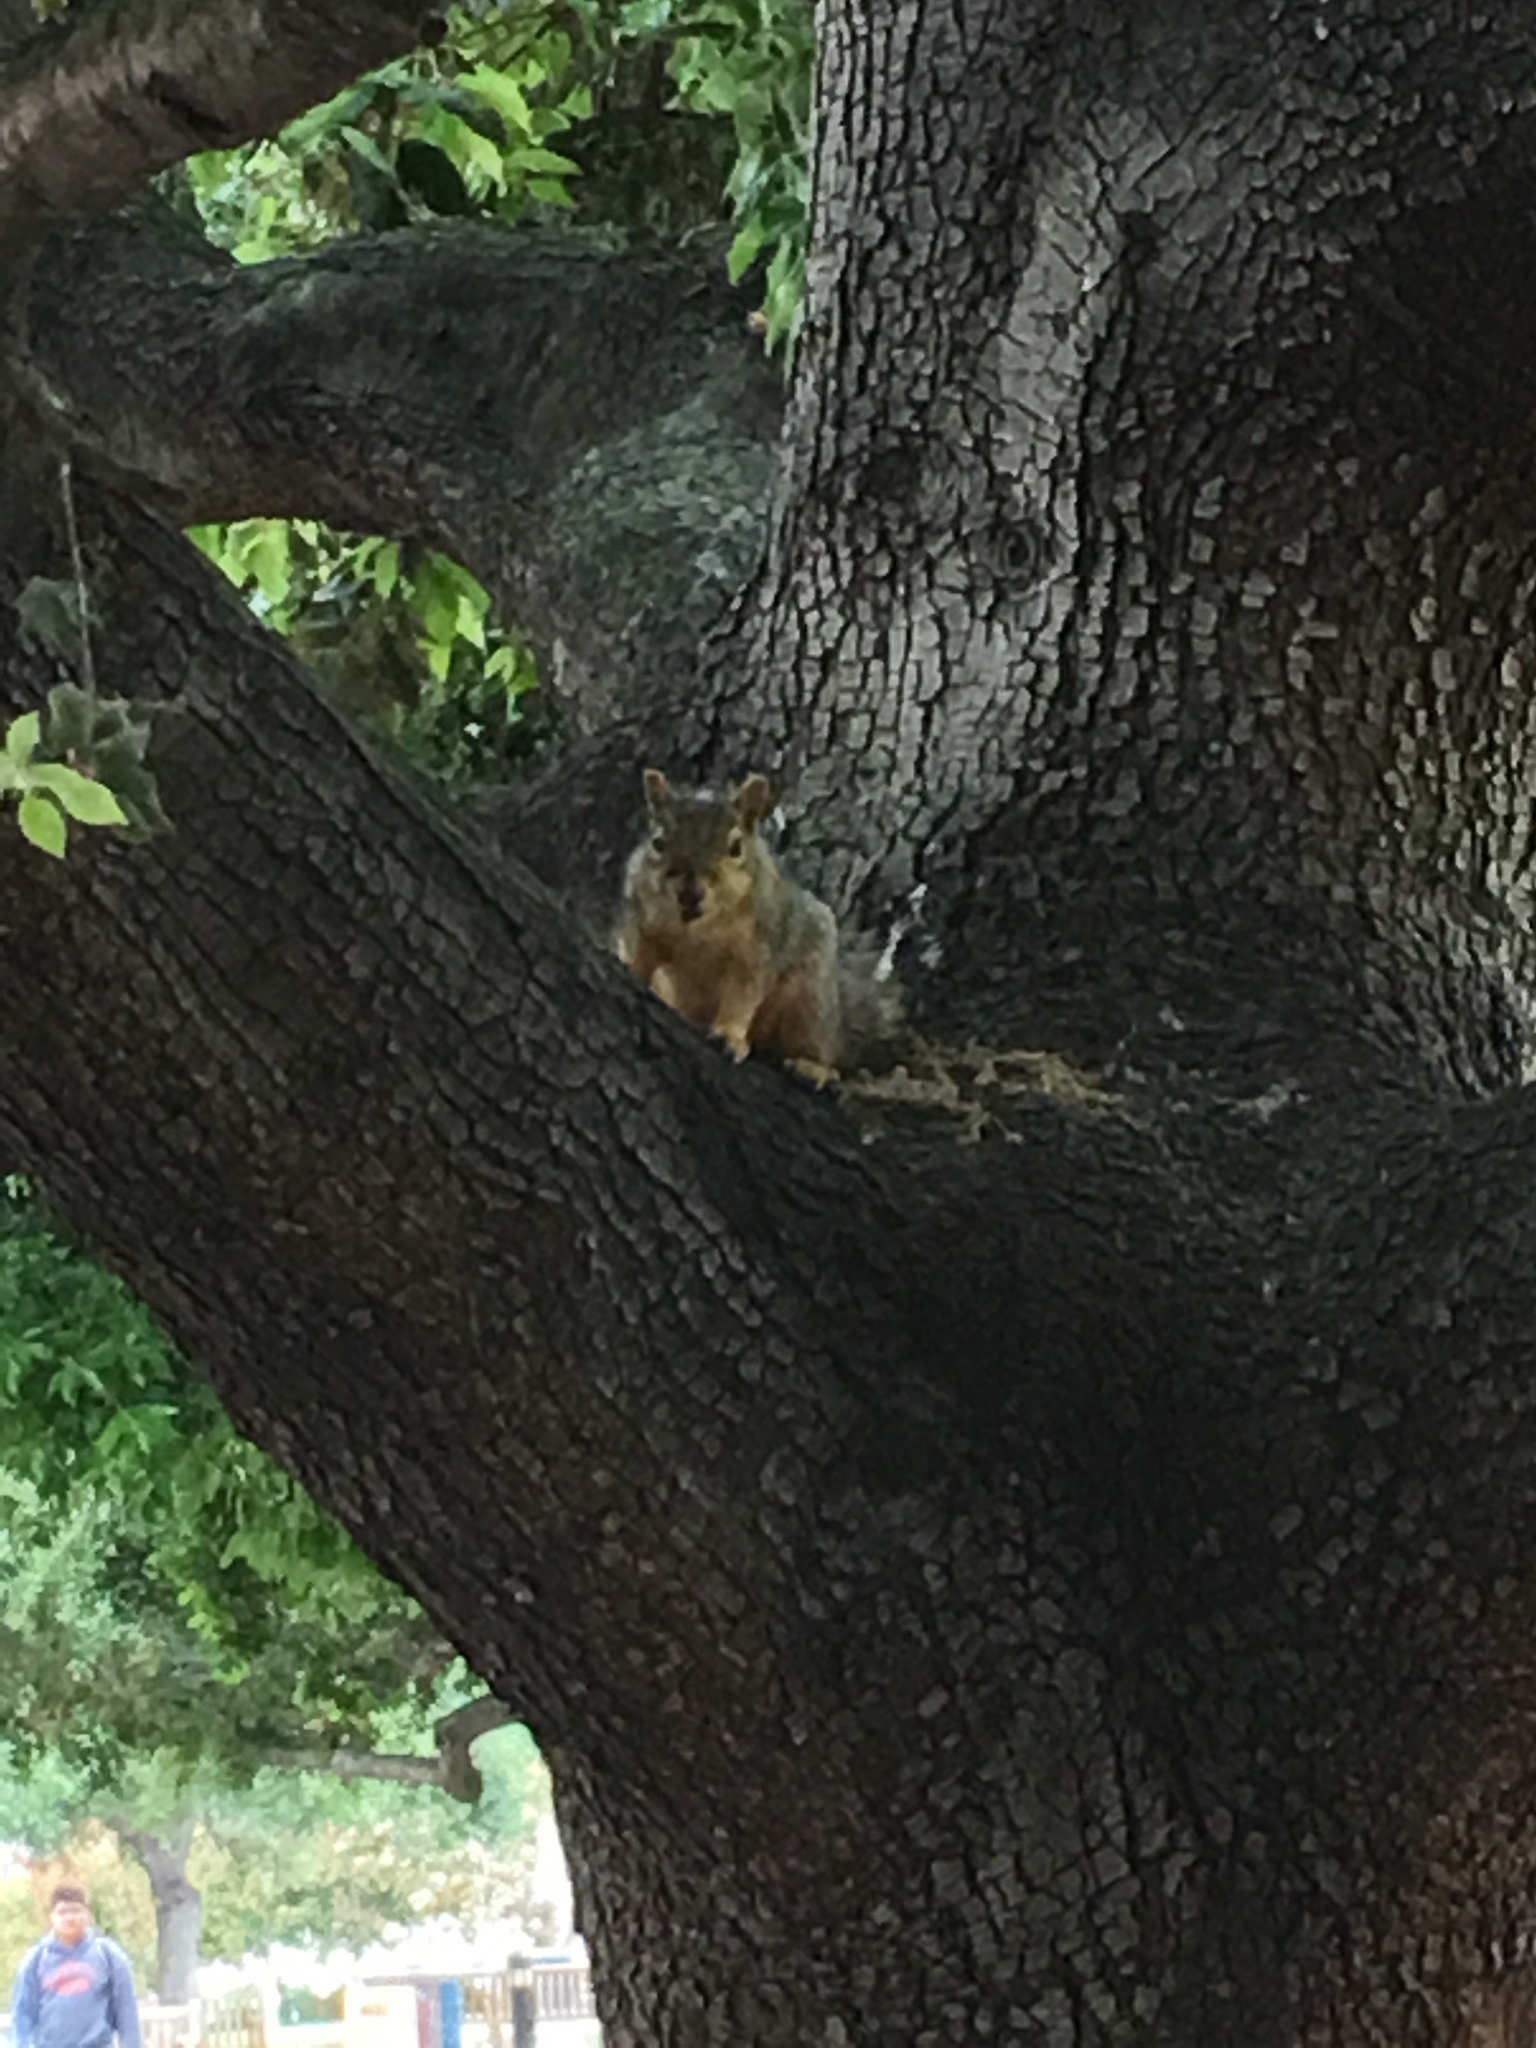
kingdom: Animalia
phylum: Chordata
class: Mammalia
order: Rodentia
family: Sciuridae
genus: Sciurus
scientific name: Sciurus niger
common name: Fox squirrel
